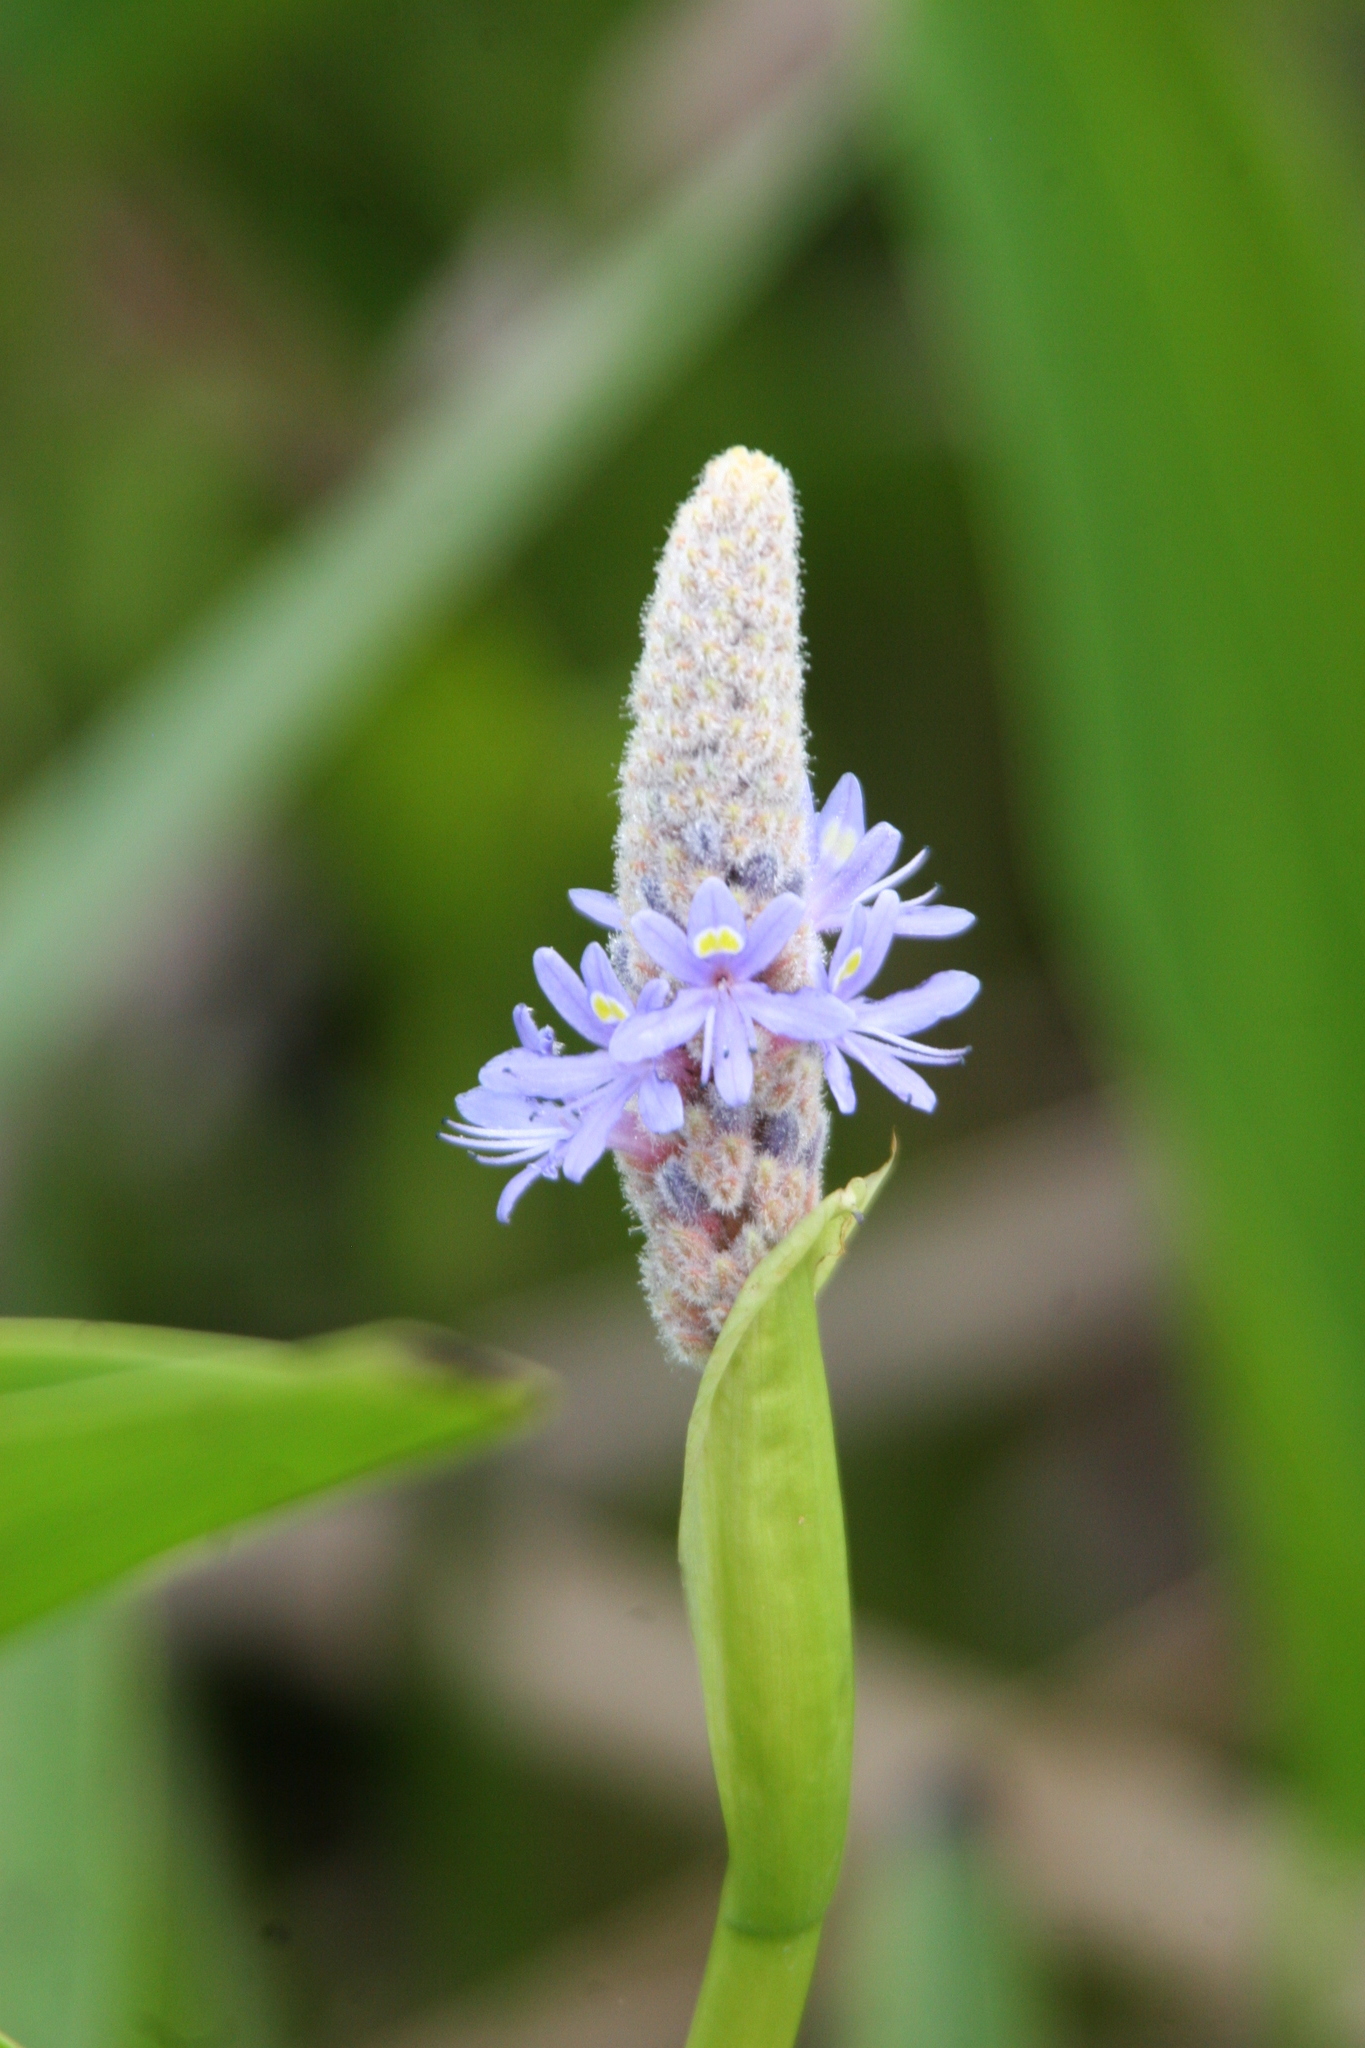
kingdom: Plantae
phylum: Tracheophyta
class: Liliopsida
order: Commelinales
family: Pontederiaceae
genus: Pontederia
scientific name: Pontederia cordata
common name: Pickerelweed
